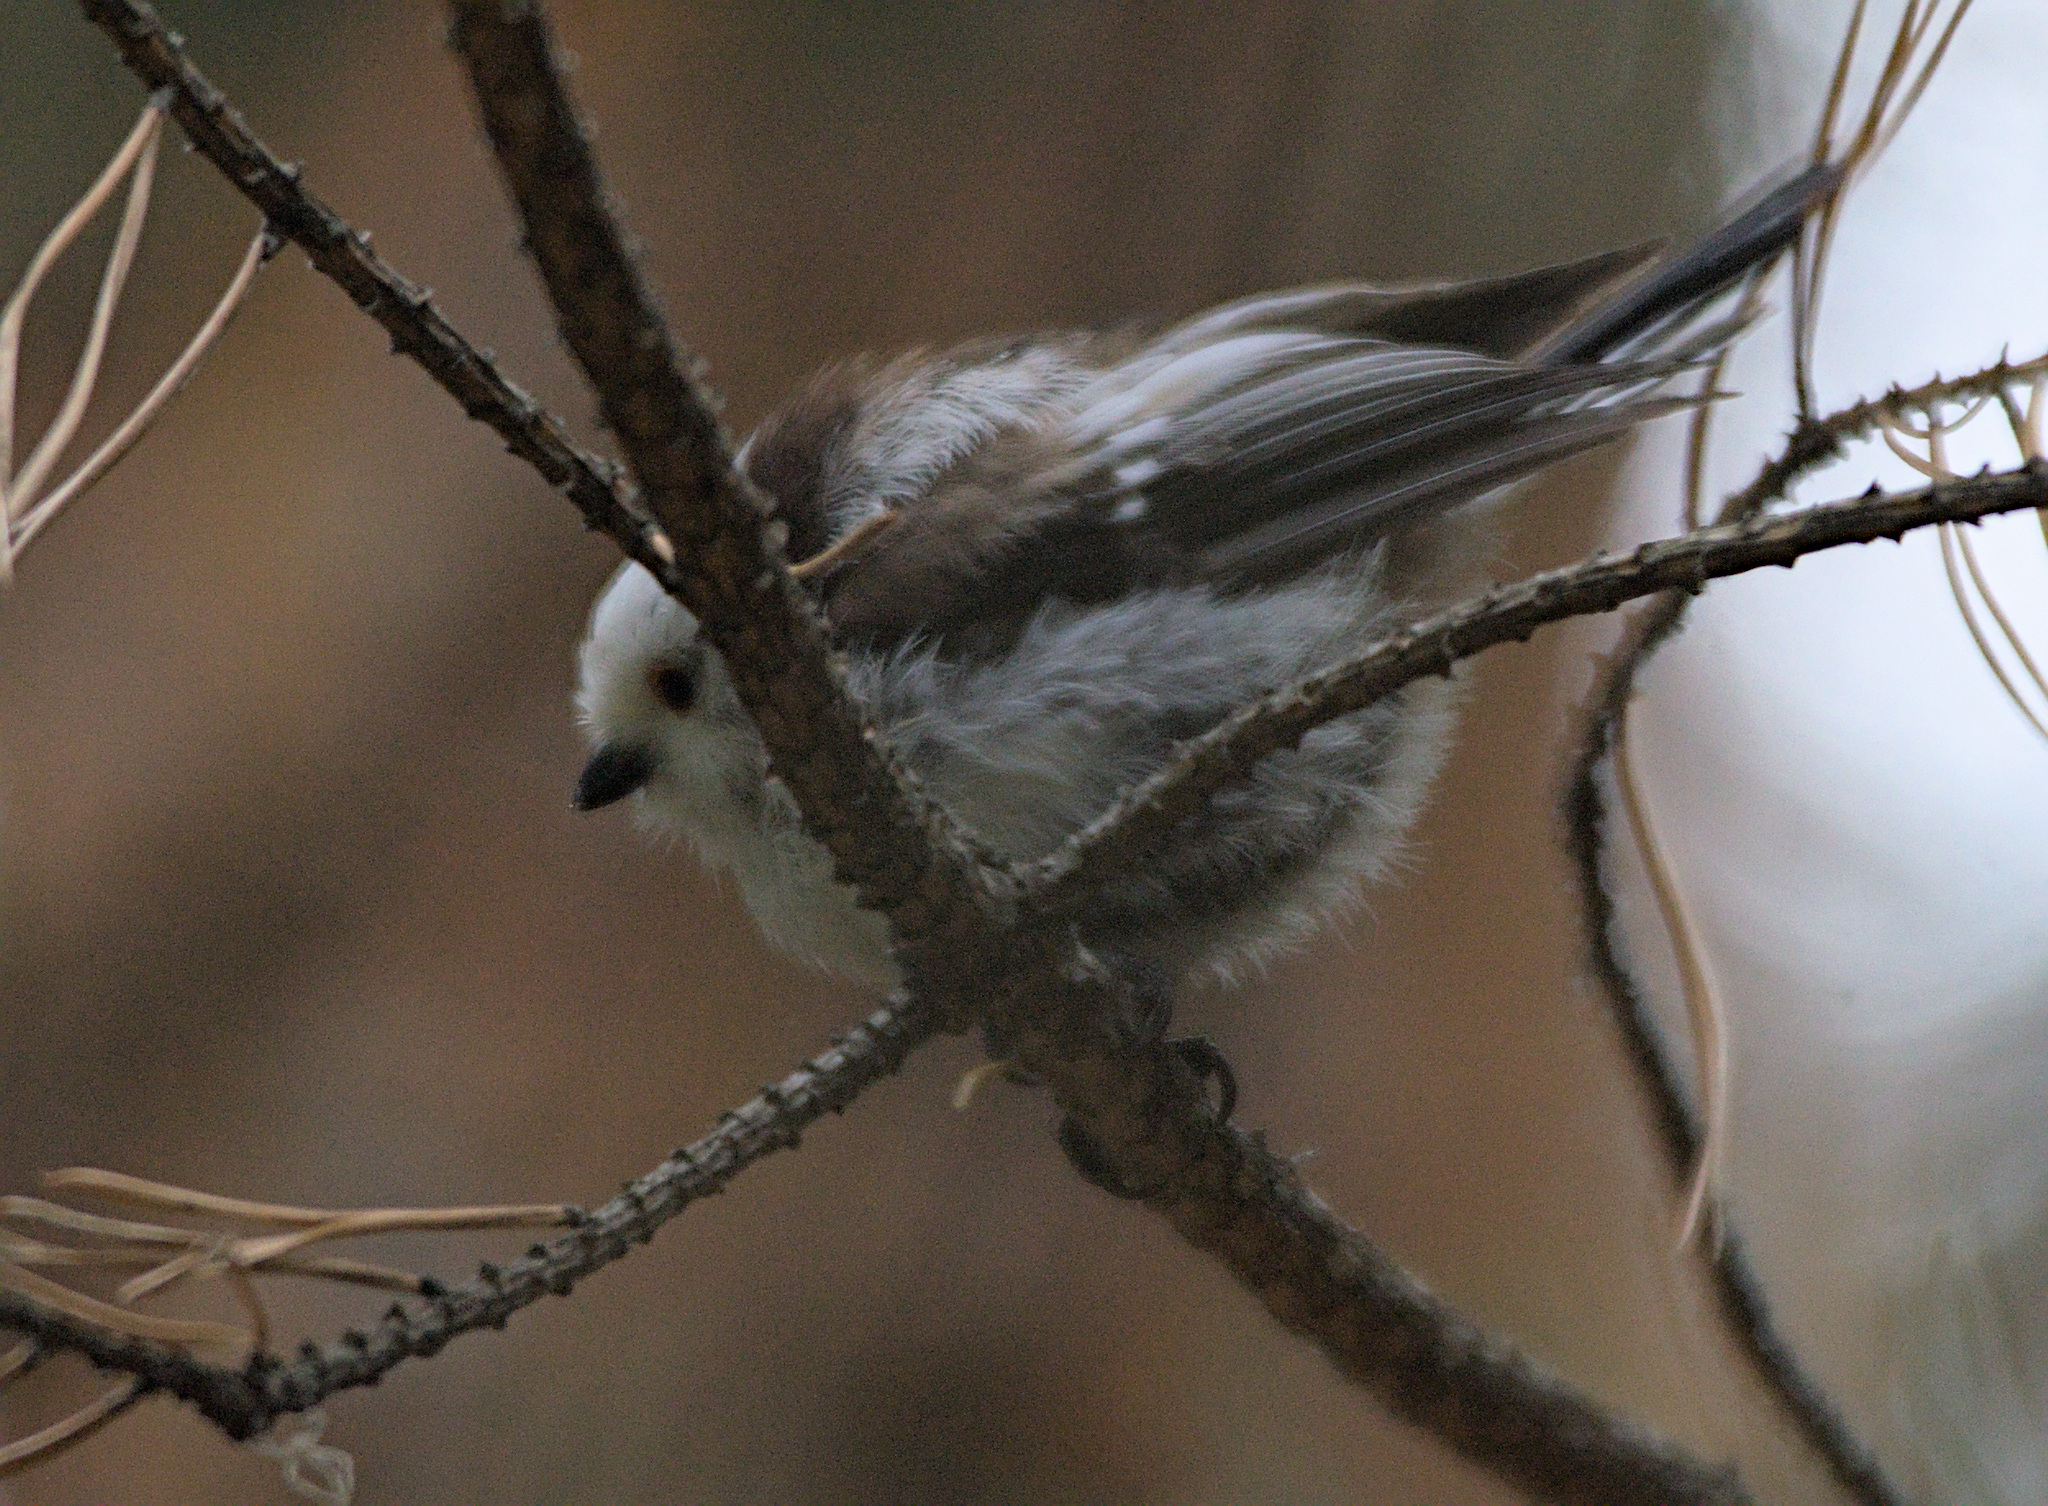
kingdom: Animalia
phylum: Chordata
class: Aves
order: Passeriformes
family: Aegithalidae
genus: Aegithalos
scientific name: Aegithalos caudatus
